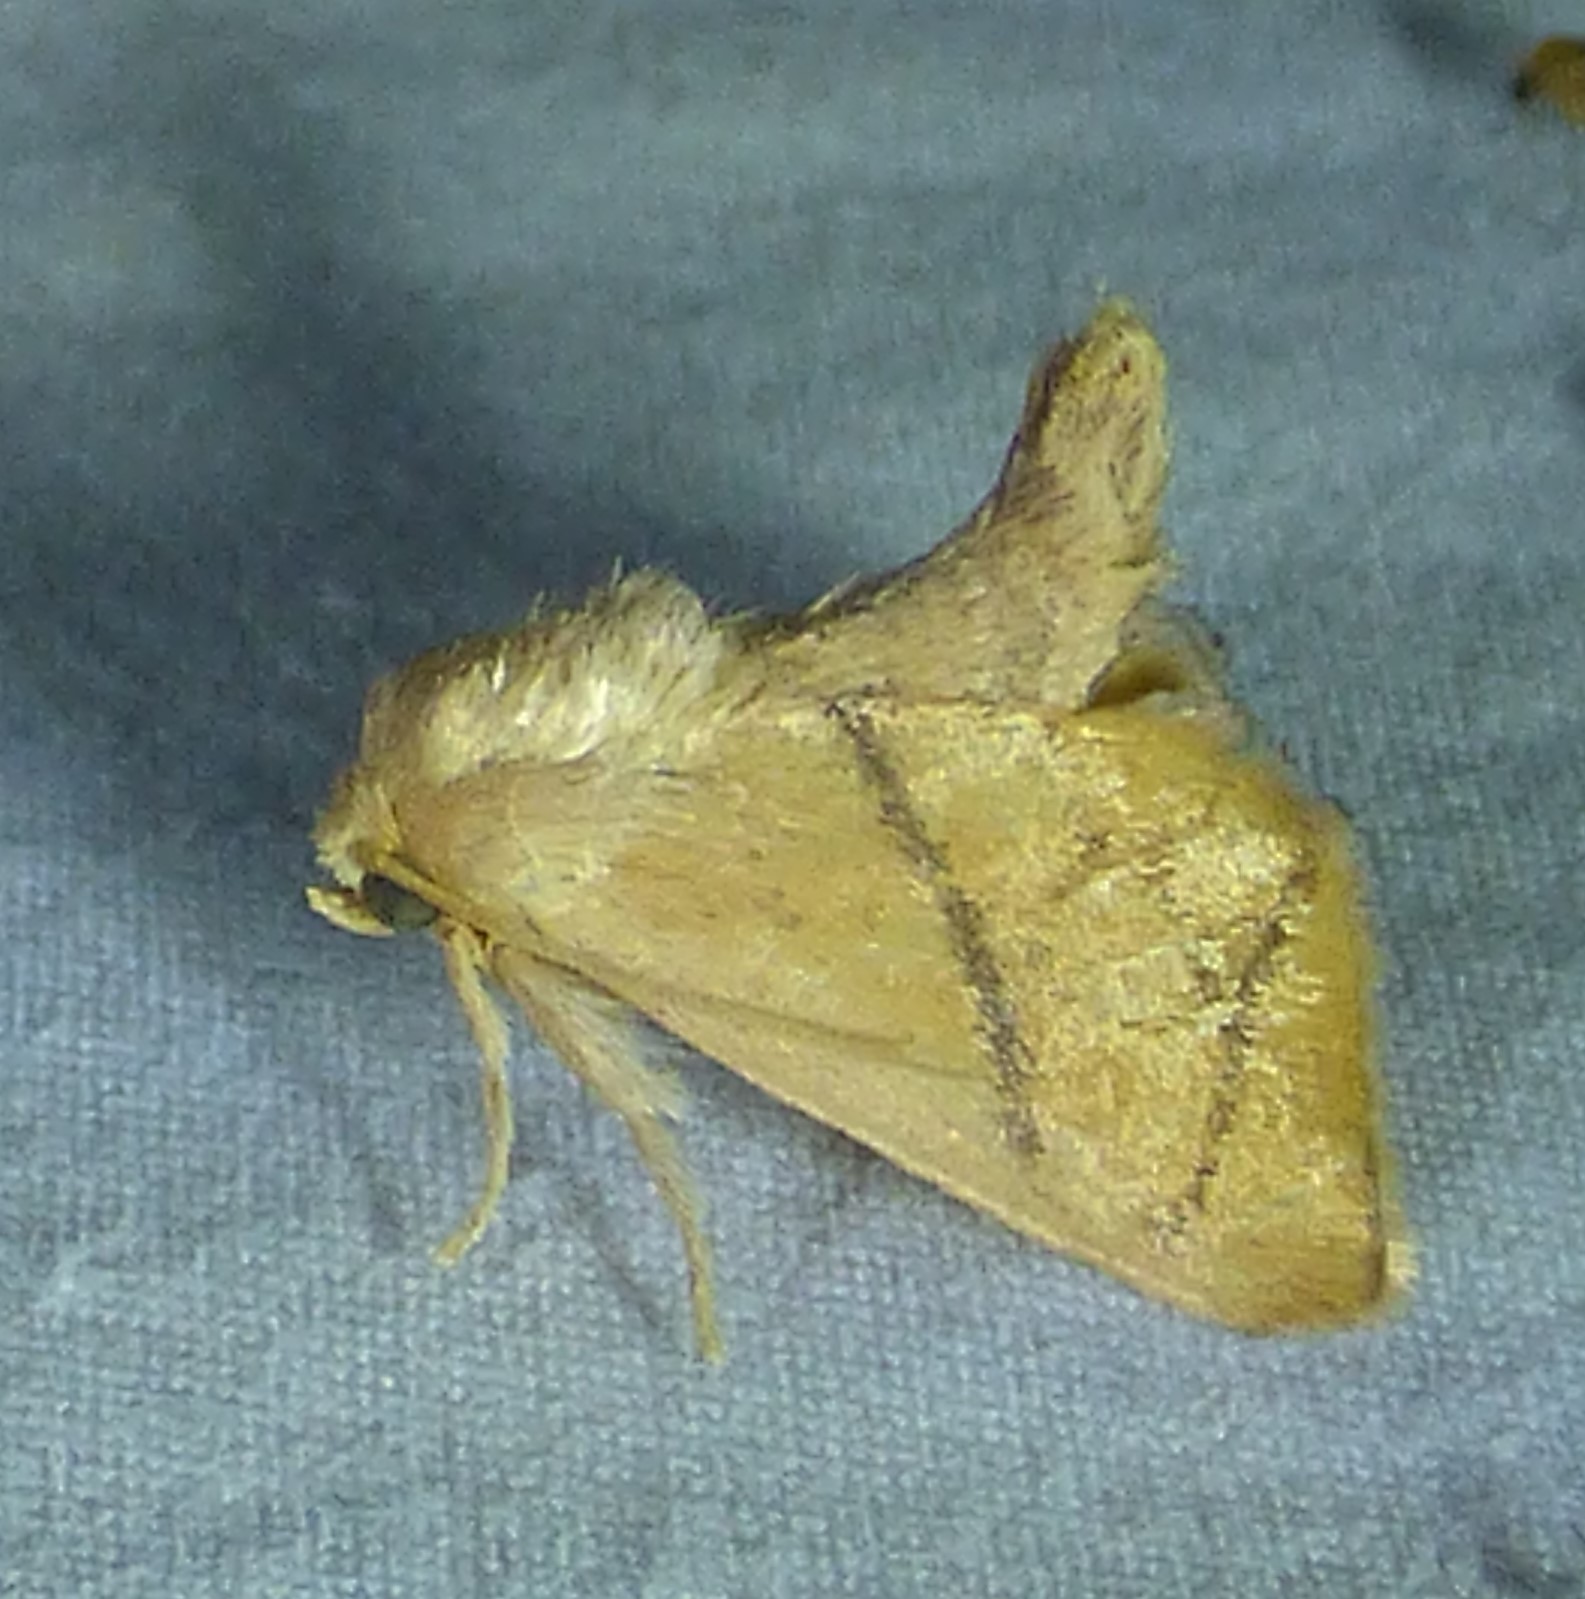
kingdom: Animalia
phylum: Arthropoda
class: Insecta
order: Lepidoptera
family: Limacodidae
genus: Apoda
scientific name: Apoda y-inversa
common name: Yellow-collared slug moth
